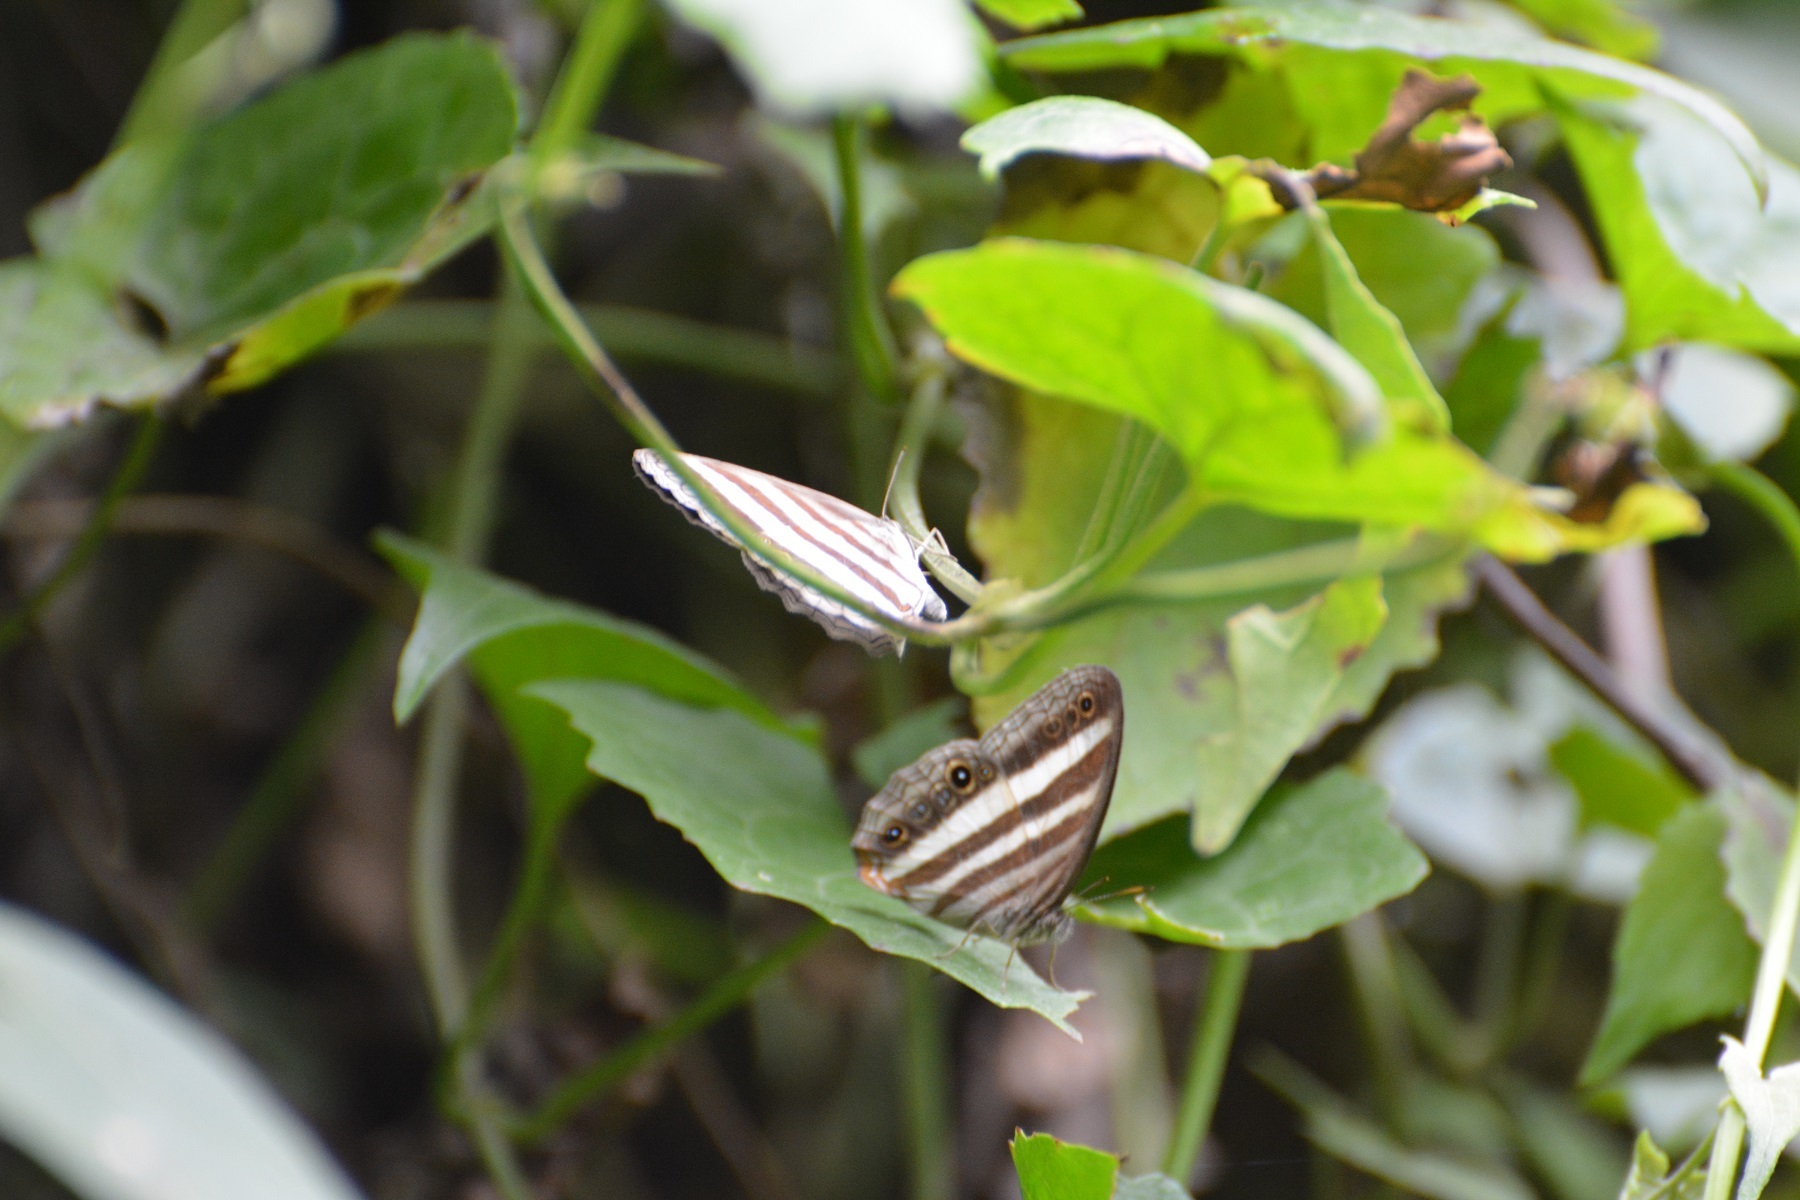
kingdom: Animalia
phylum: Arthropoda
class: Insecta
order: Lepidoptera
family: Nymphalidae
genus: Pareuptychia
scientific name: Pareuptychia hesione
